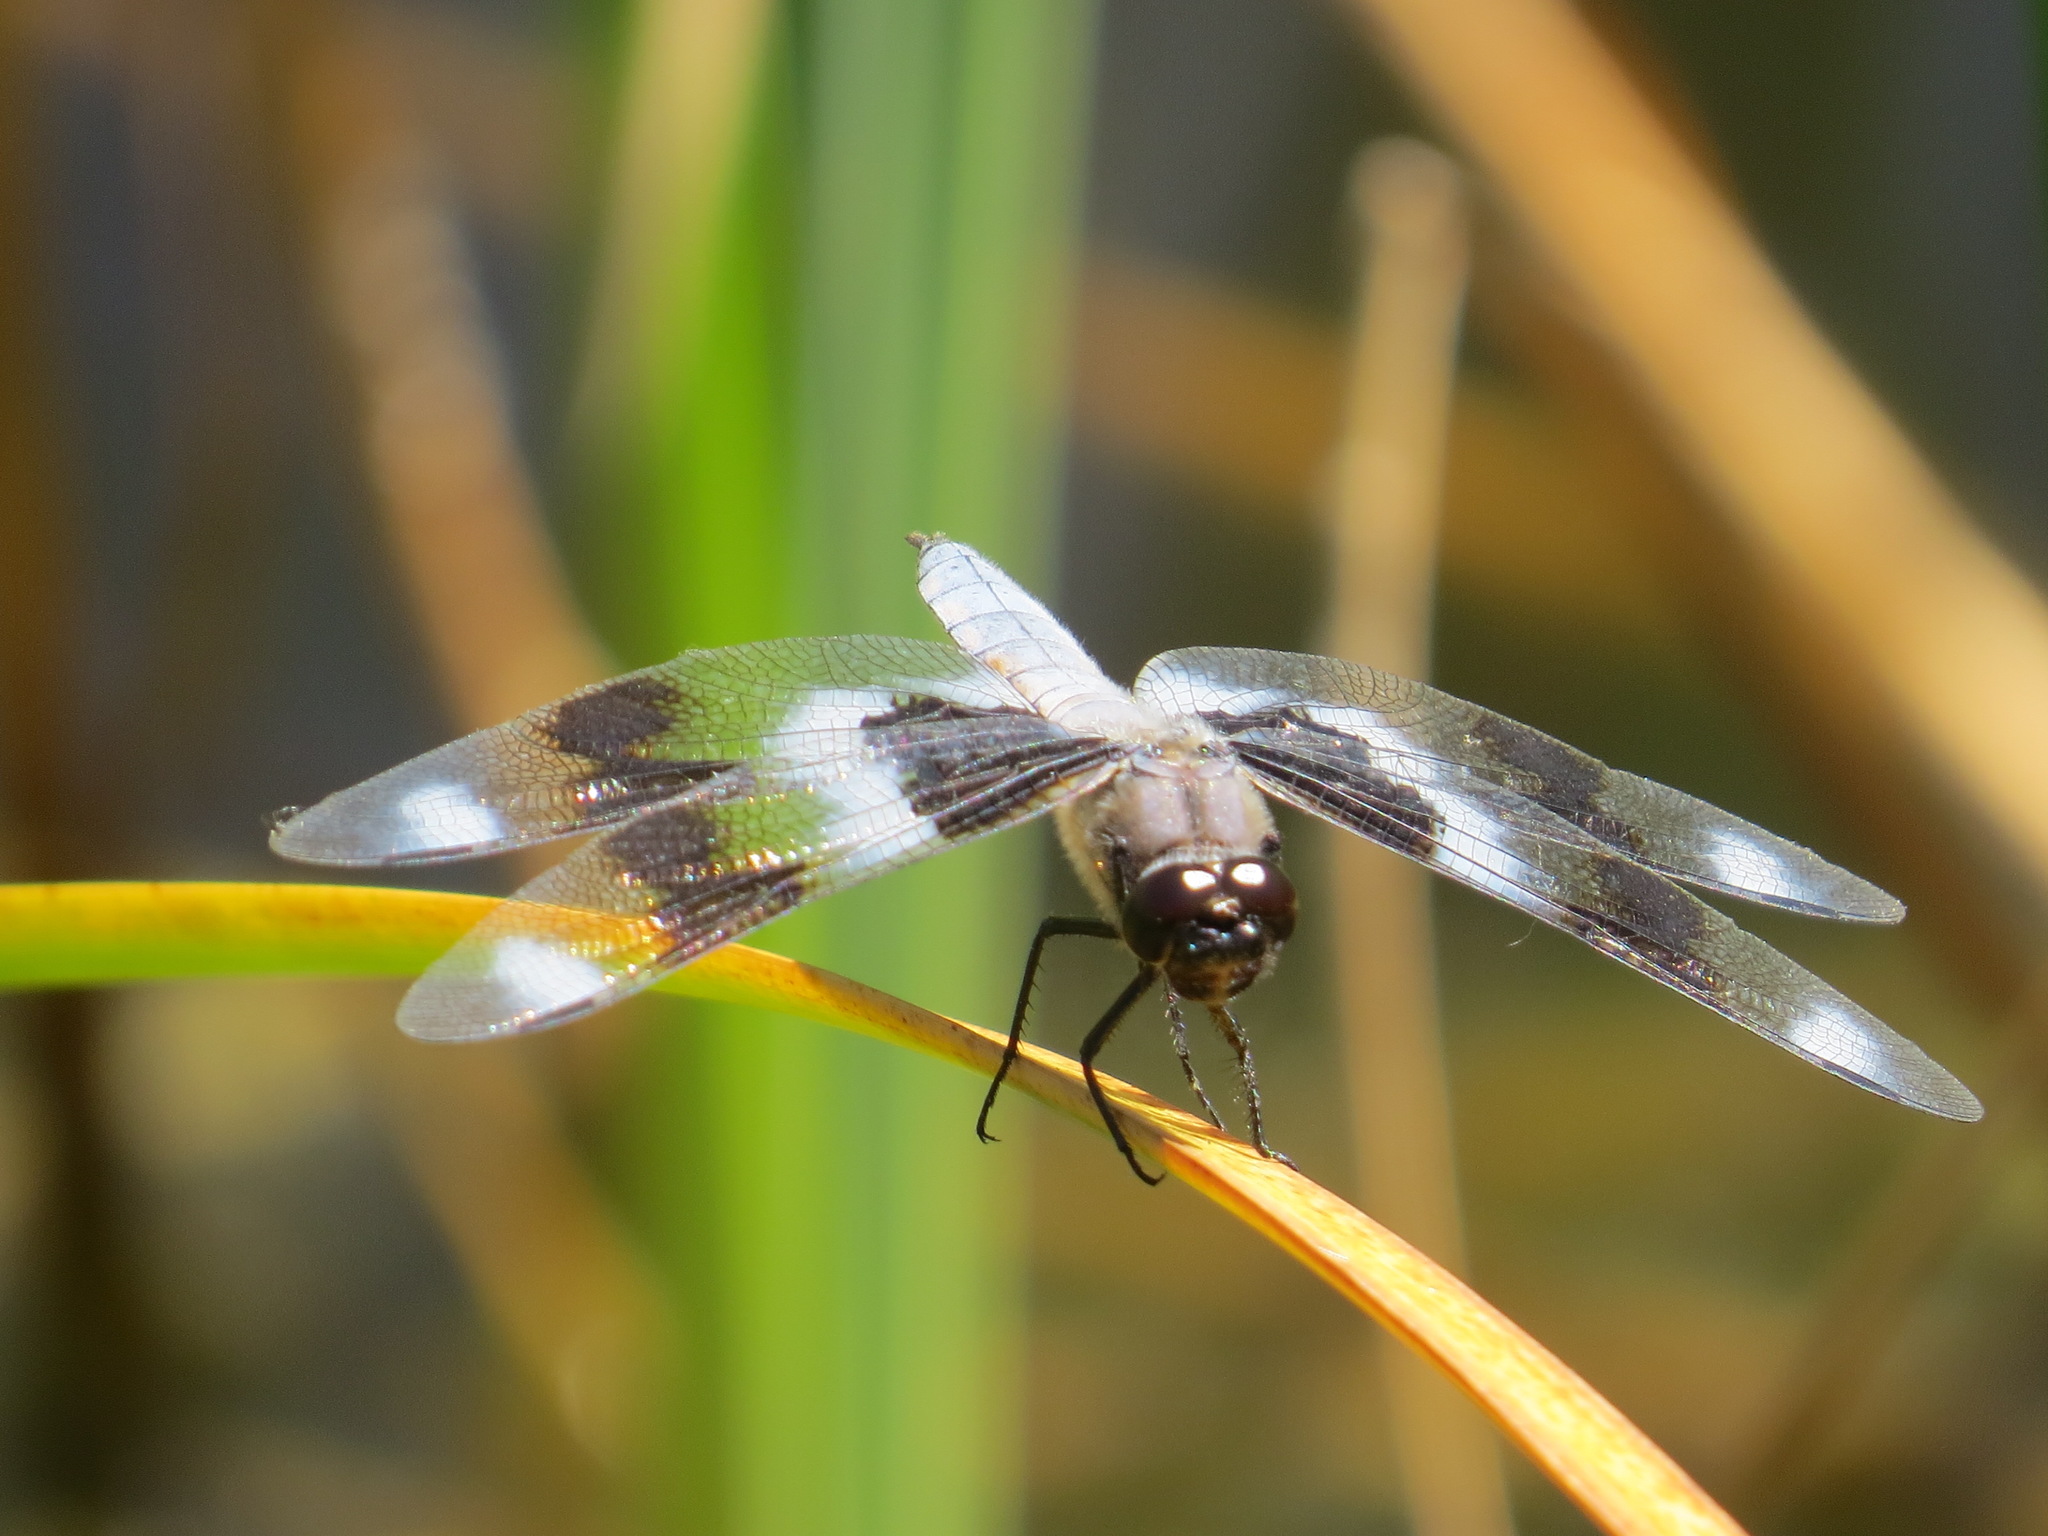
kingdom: Animalia
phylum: Arthropoda
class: Insecta
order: Odonata
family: Libellulidae
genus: Libellula
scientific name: Libellula forensis
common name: Eight-spotted skimmer
